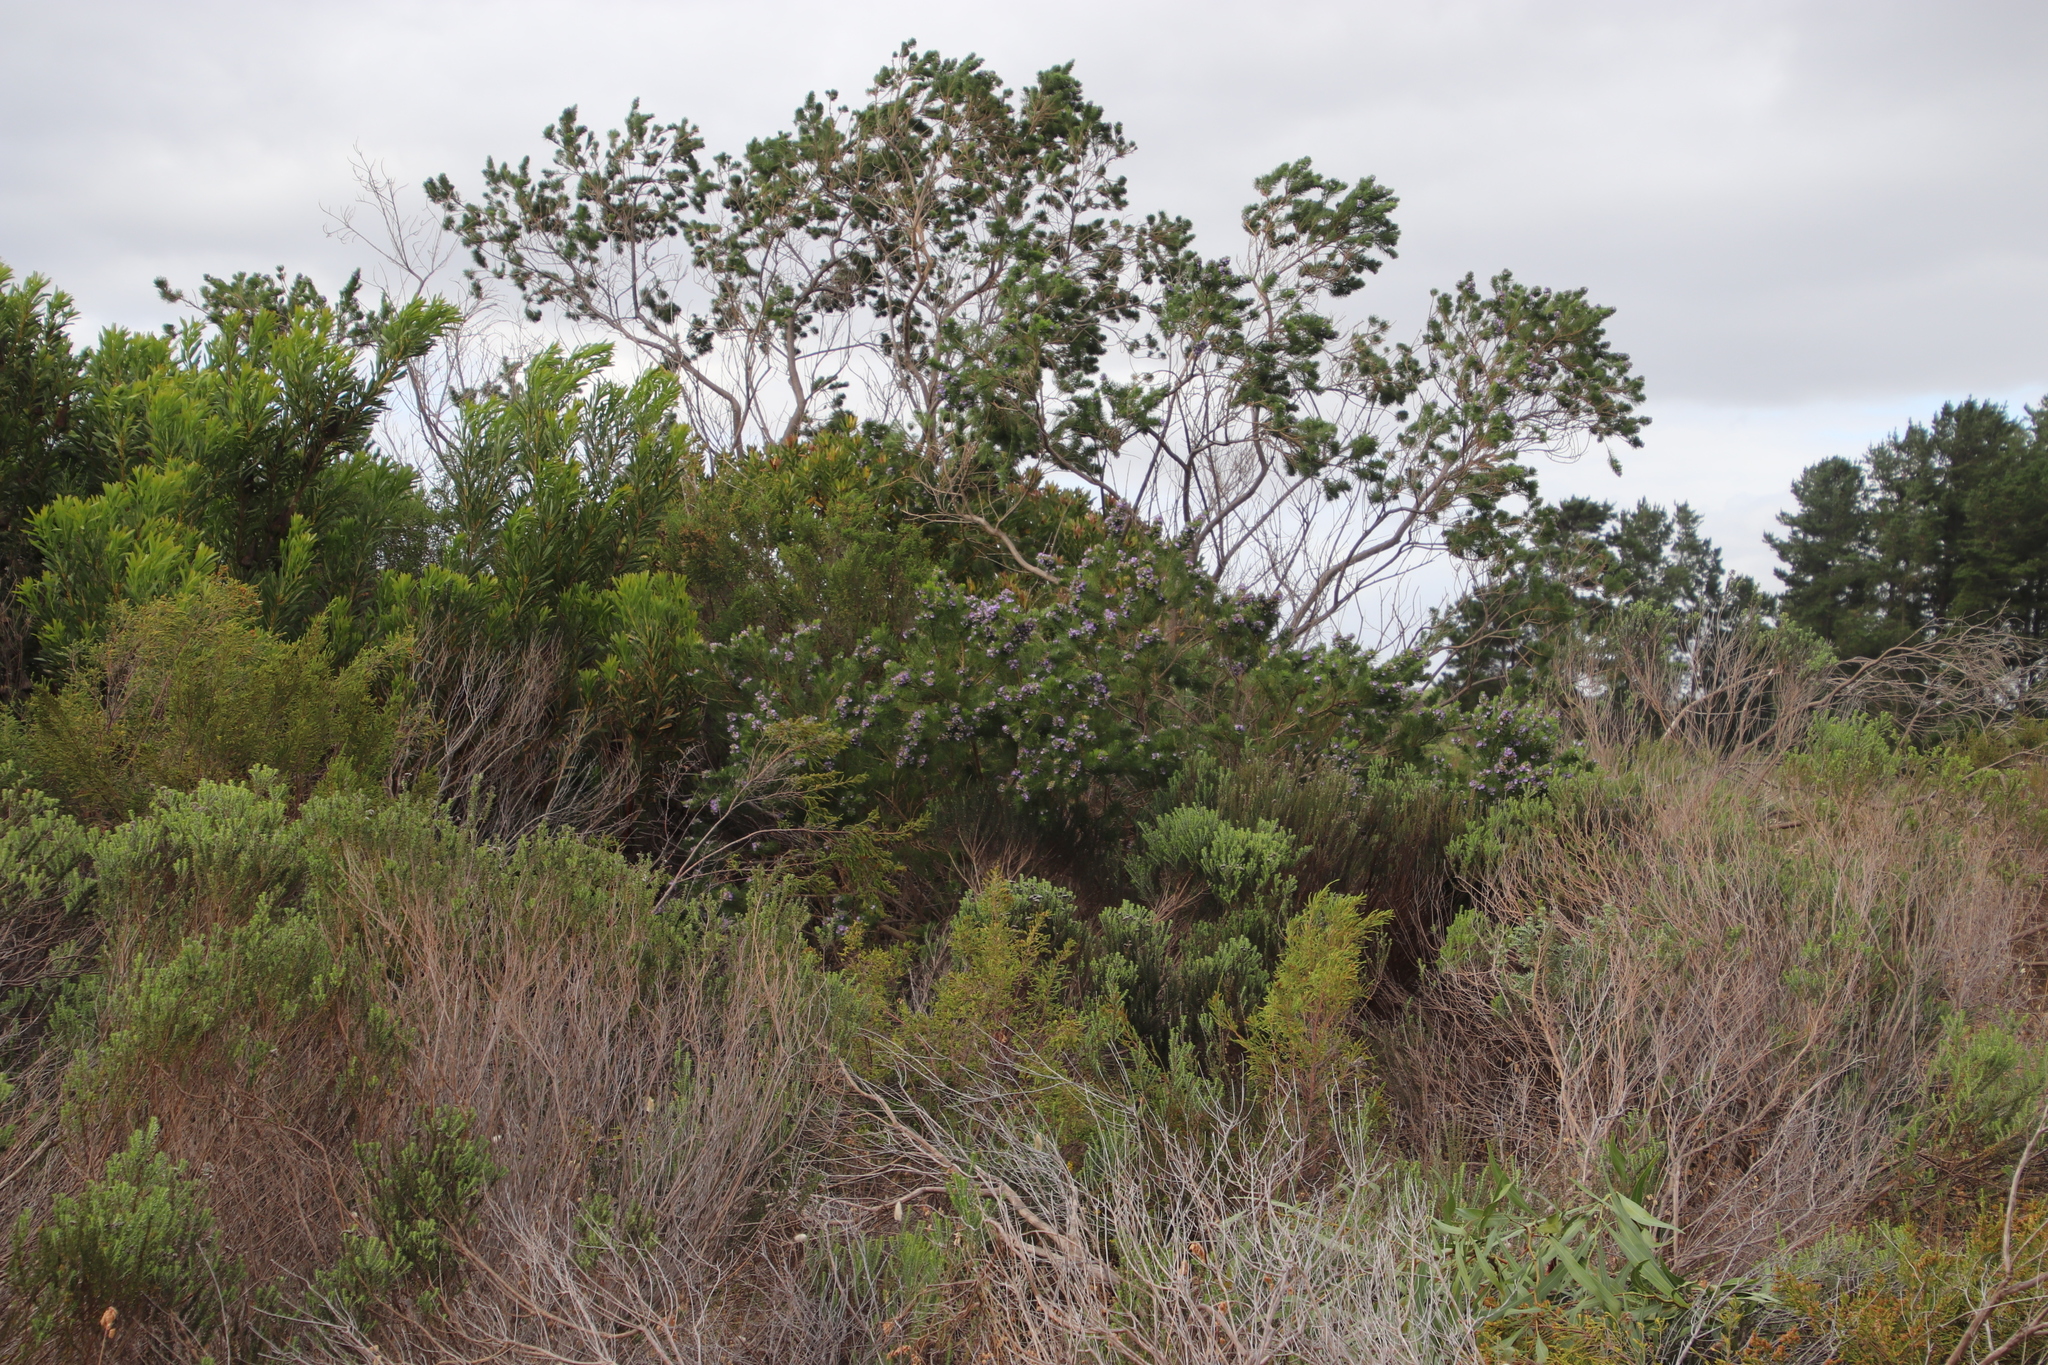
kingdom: Plantae
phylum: Tracheophyta
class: Magnoliopsida
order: Fabales
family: Fabaceae
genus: Psoralea
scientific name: Psoralea pinnata
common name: African scurfpea
